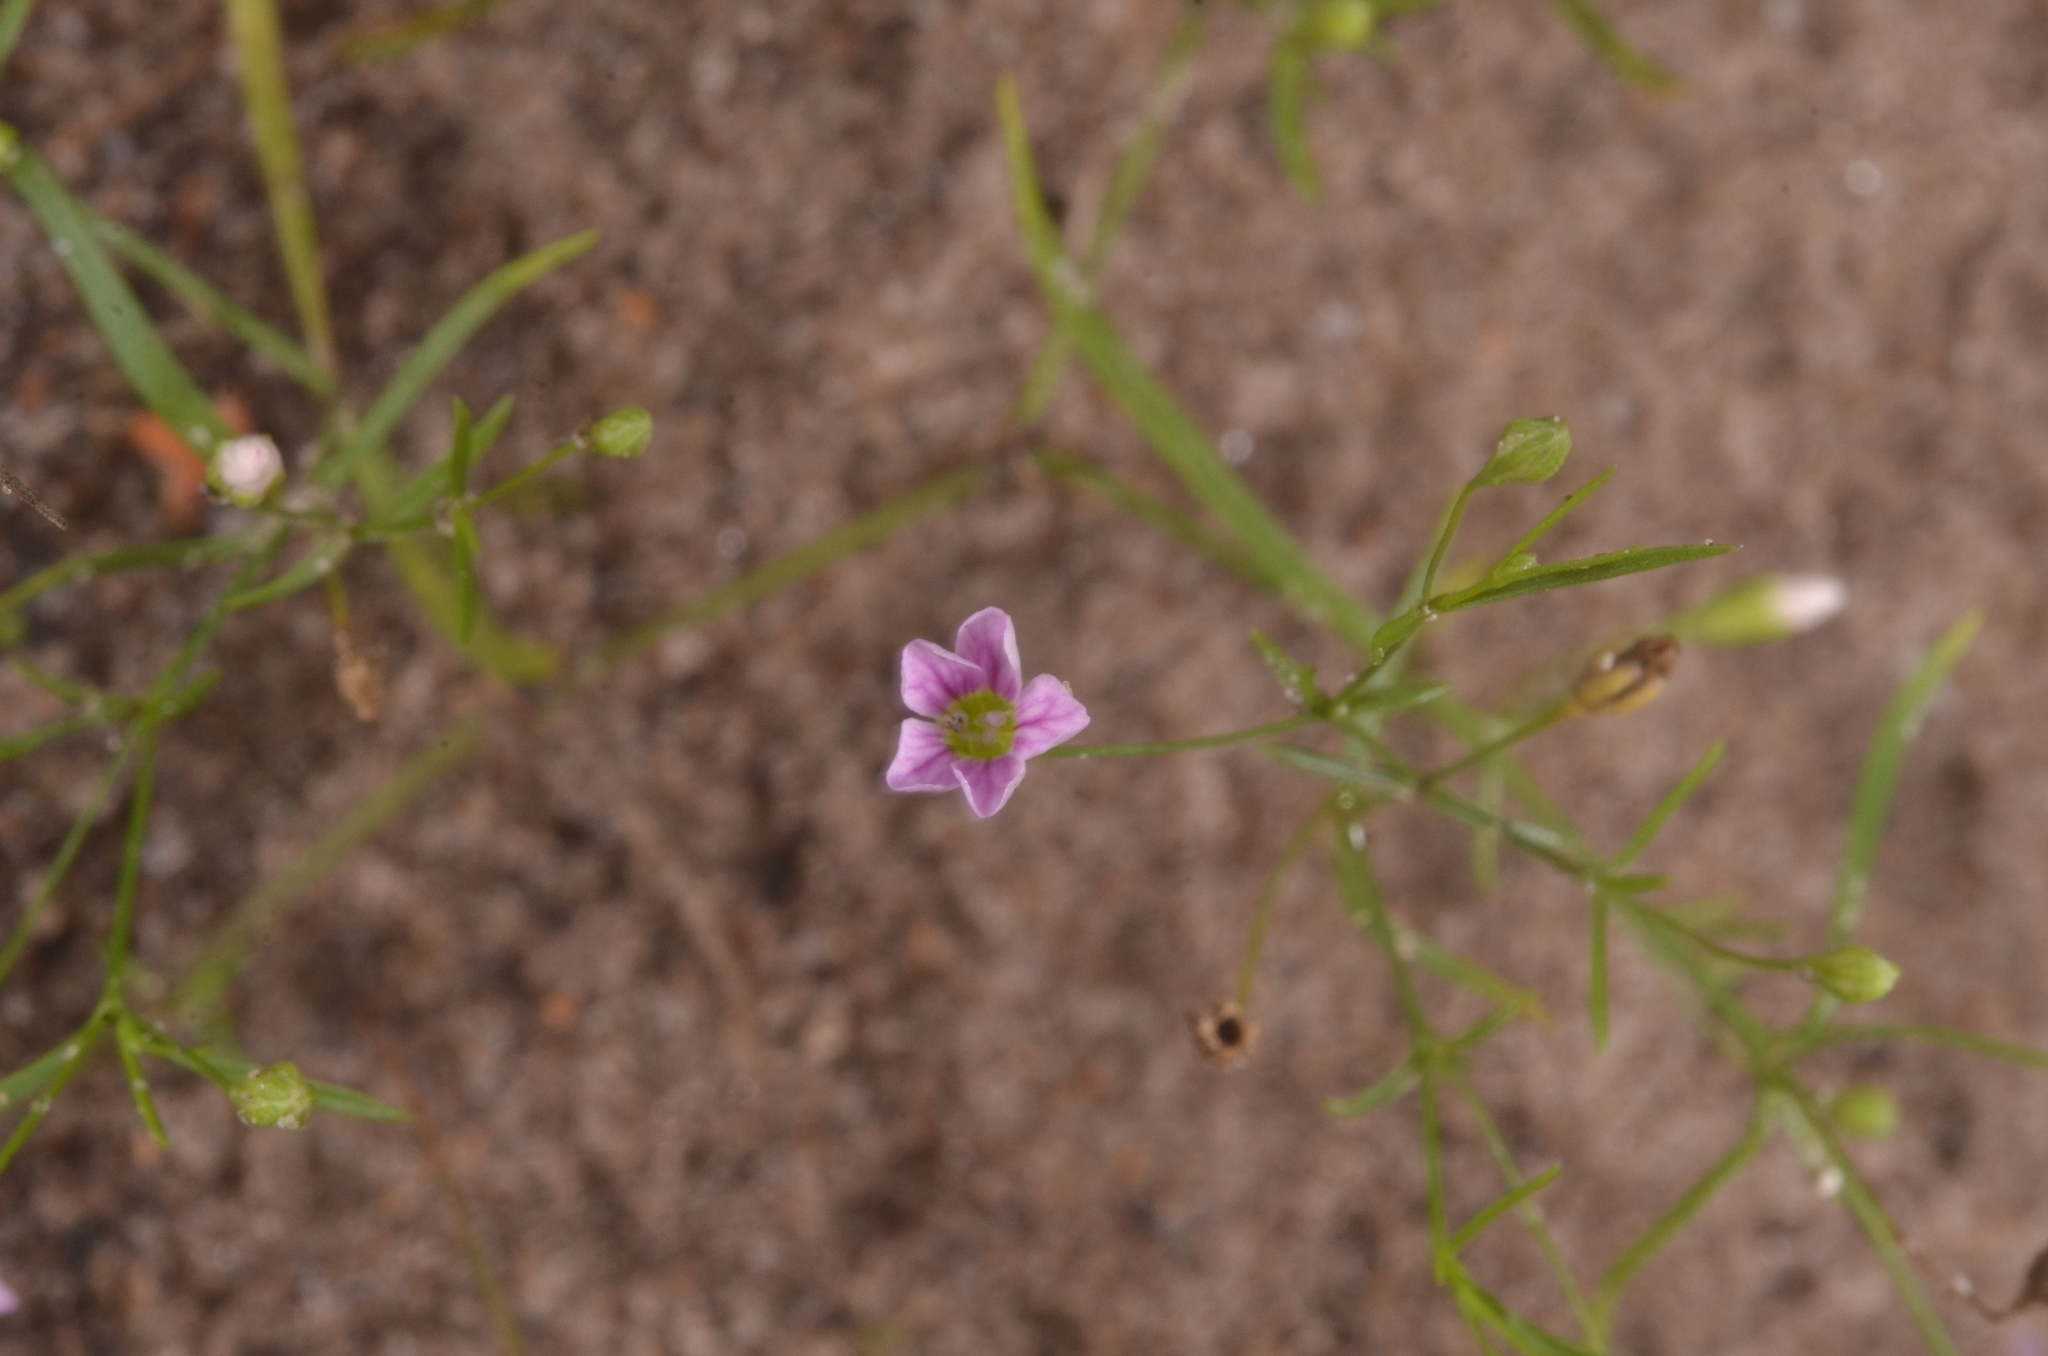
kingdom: Plantae
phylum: Tracheophyta
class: Magnoliopsida
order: Caryophyllales
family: Caryophyllaceae
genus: Psammophiliella
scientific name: Psammophiliella muralis
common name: Cushion baby's-breath
